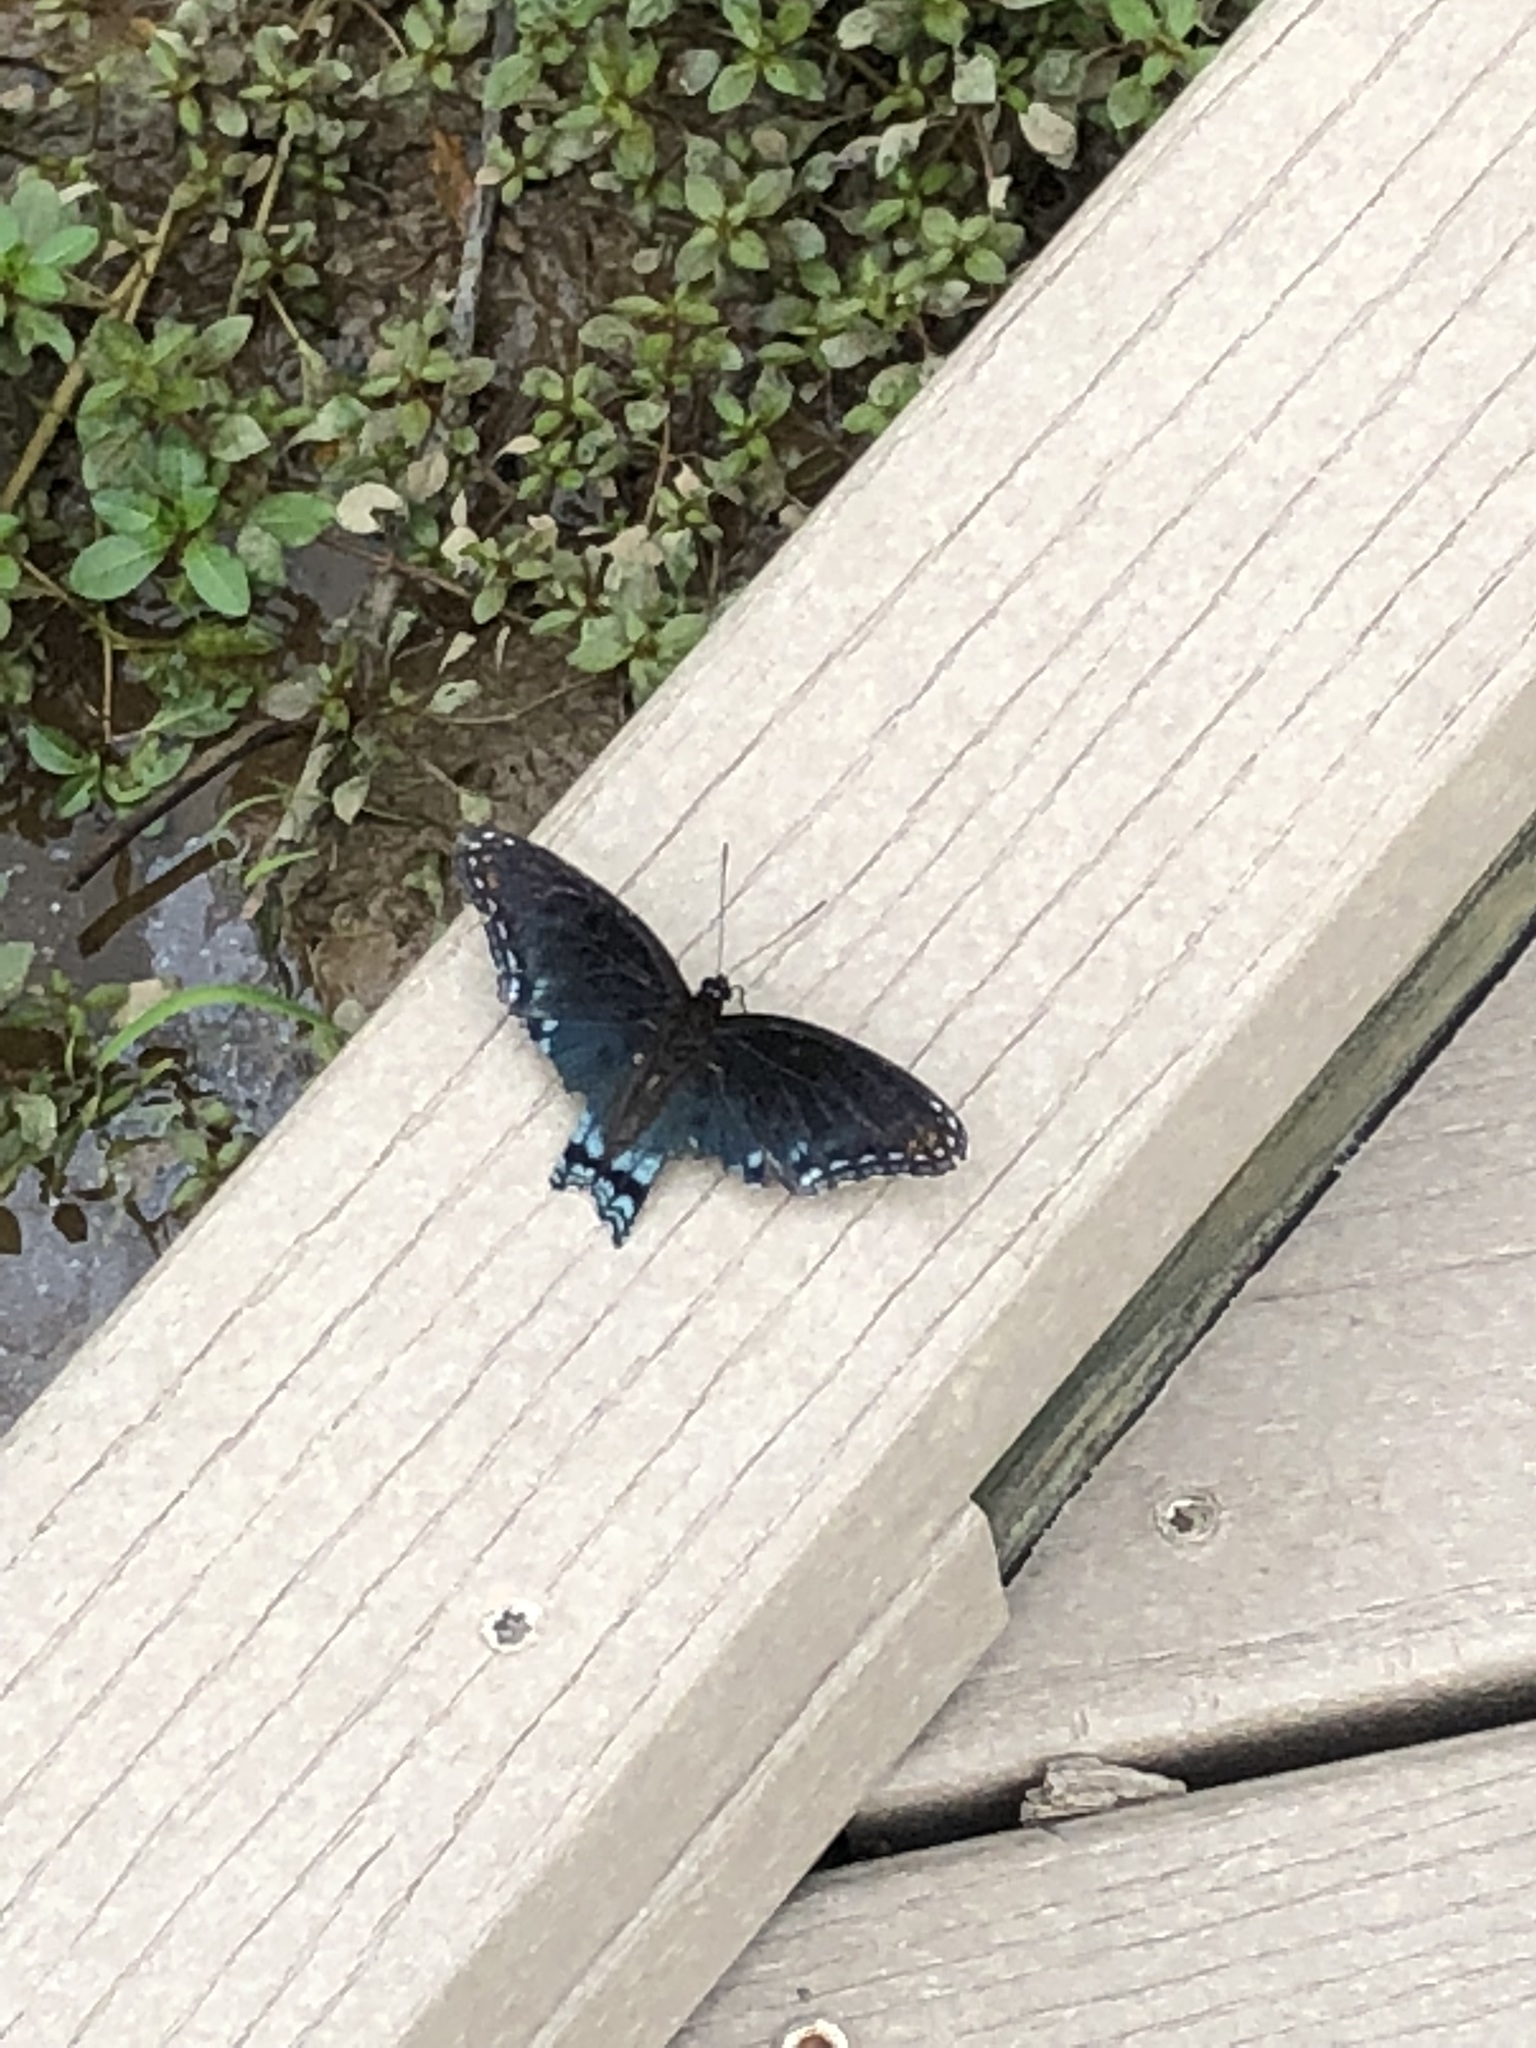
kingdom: Animalia
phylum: Arthropoda
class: Insecta
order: Lepidoptera
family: Nymphalidae
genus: Limenitis
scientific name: Limenitis astyanax
